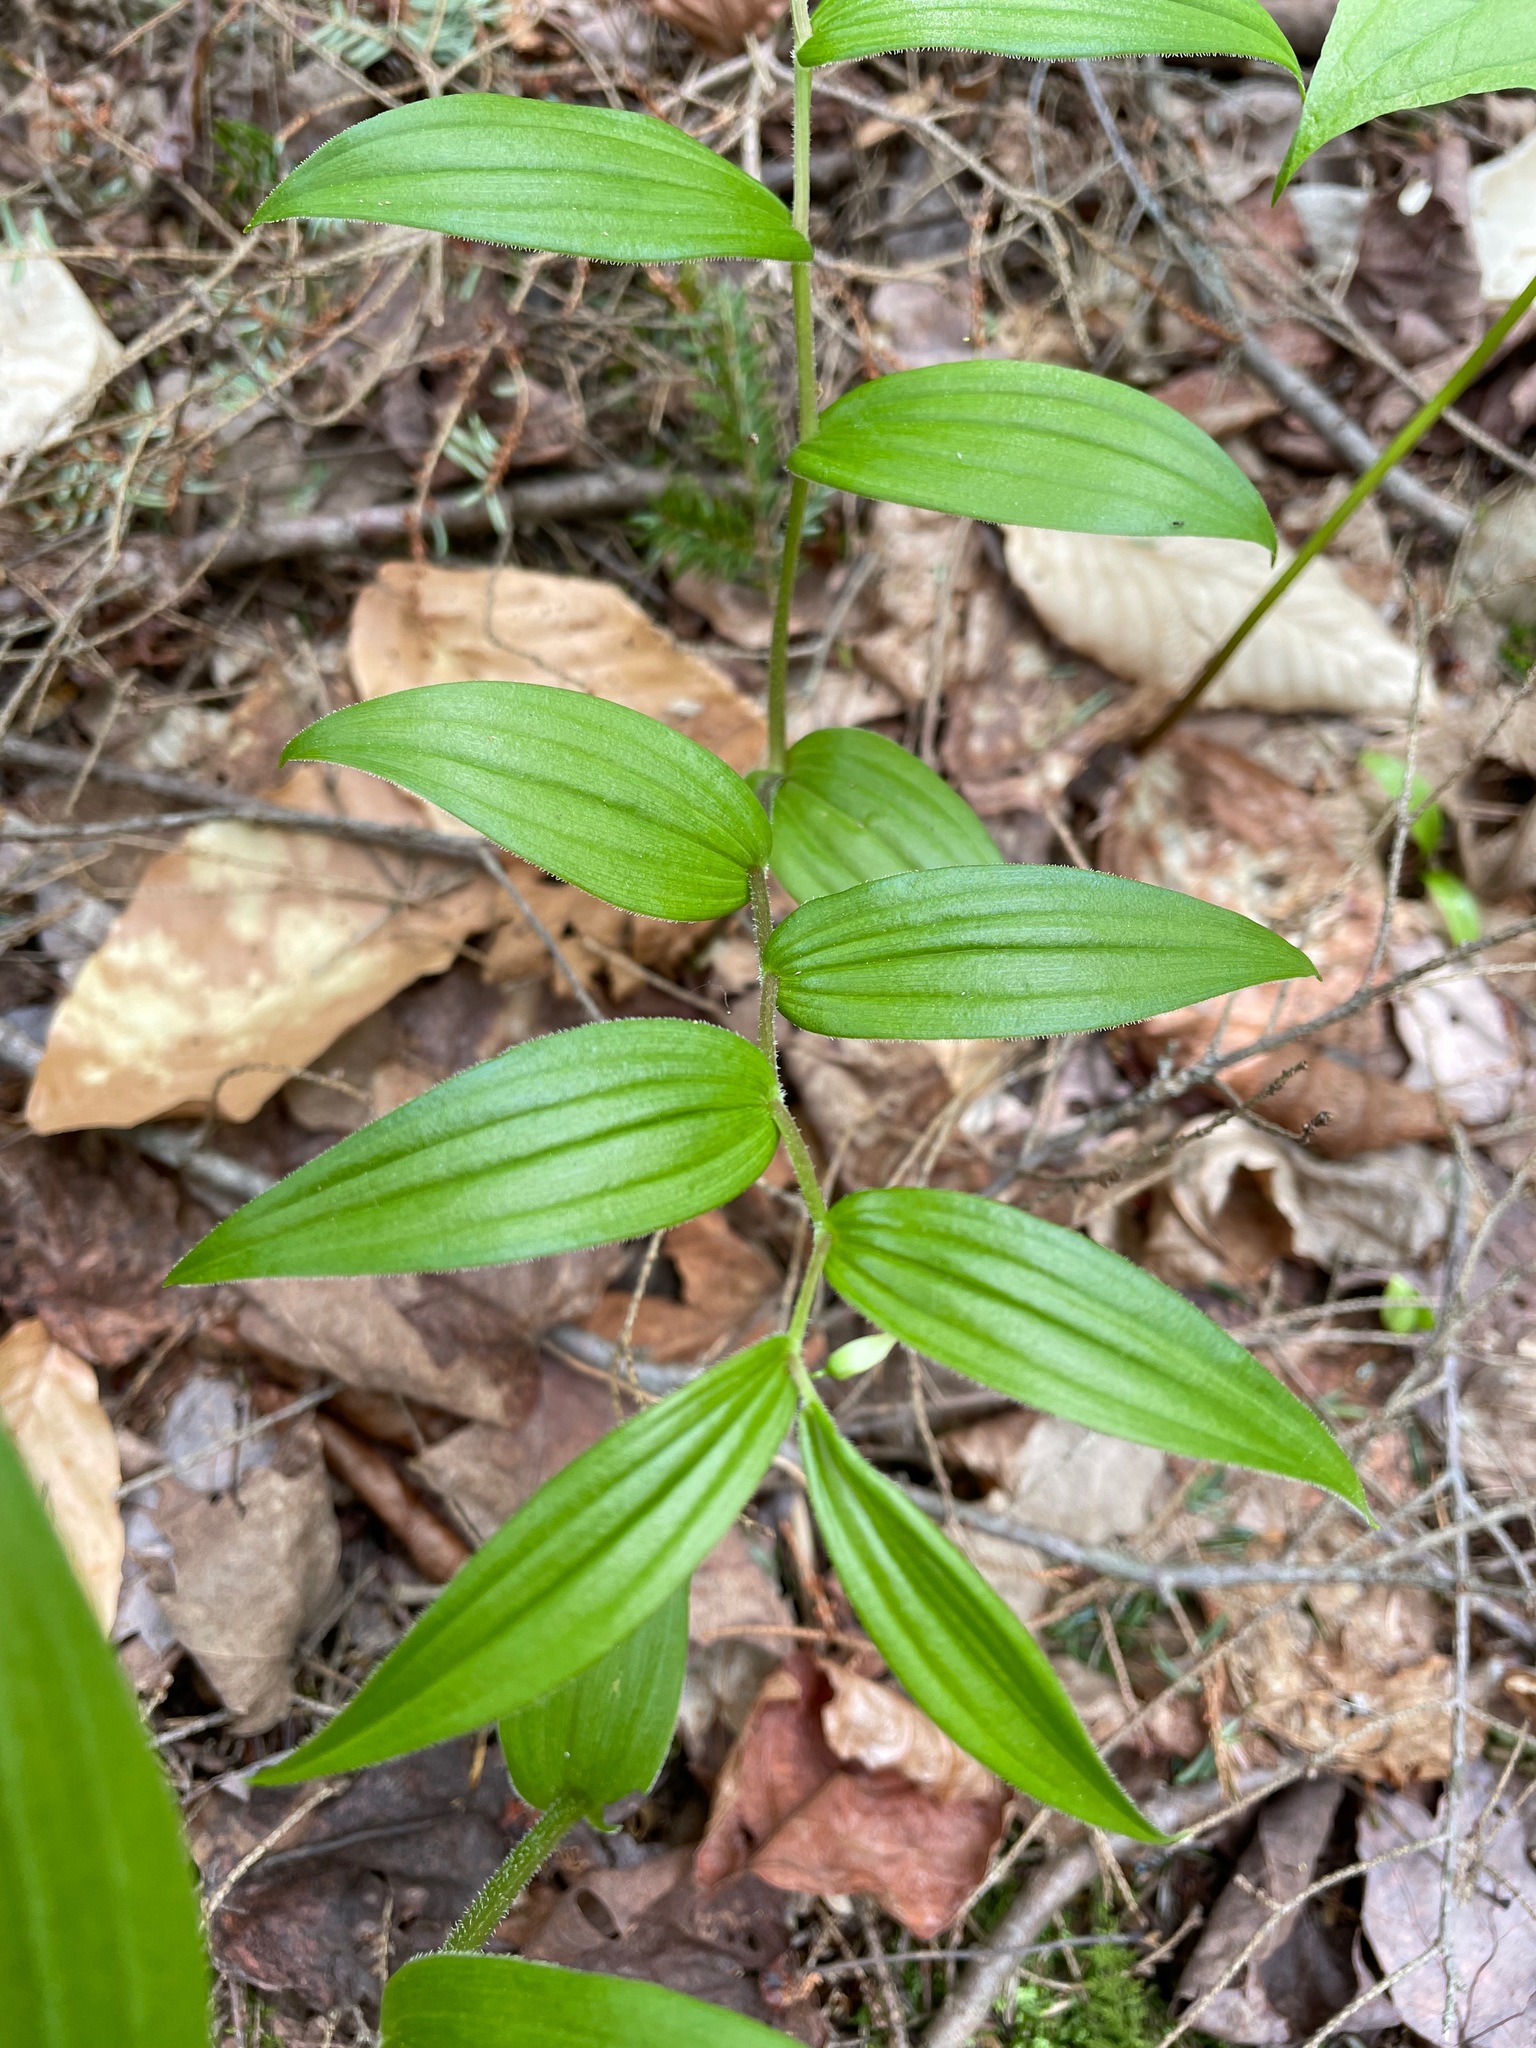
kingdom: Plantae
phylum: Tracheophyta
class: Liliopsida
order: Liliales
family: Liliaceae
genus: Streptopus
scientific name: Streptopus lanceolatus
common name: Rose mandarin
